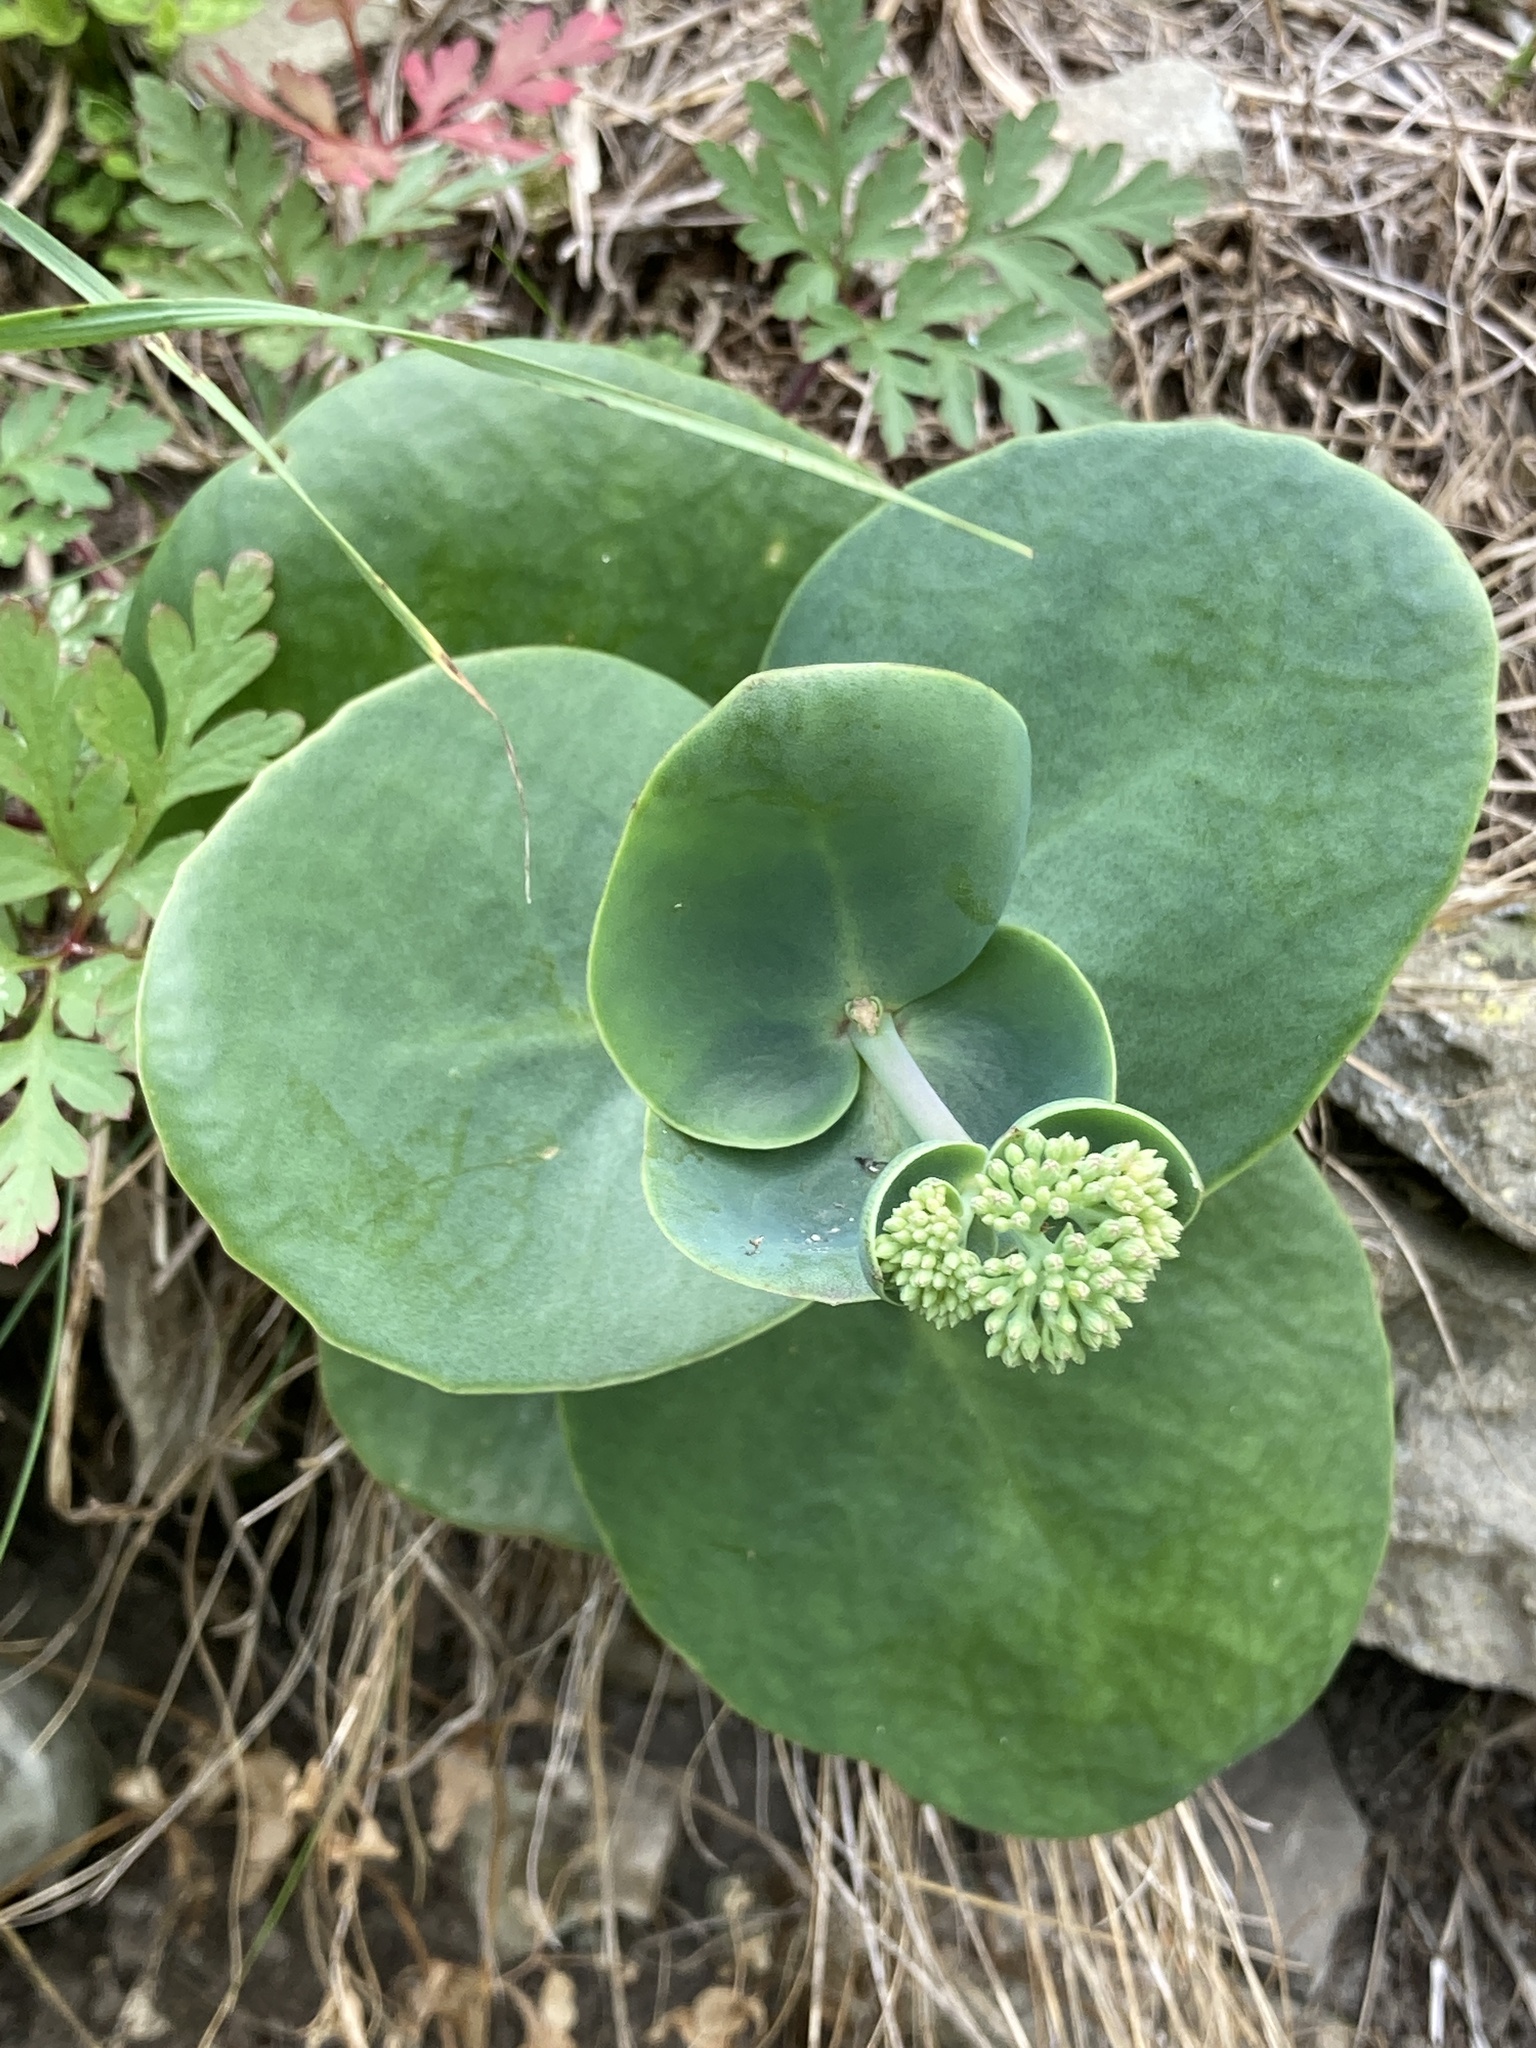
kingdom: Plantae
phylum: Tracheophyta
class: Magnoliopsida
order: Saxifragales
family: Crassulaceae
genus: Hylotelephium
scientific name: Hylotelephium maximum
